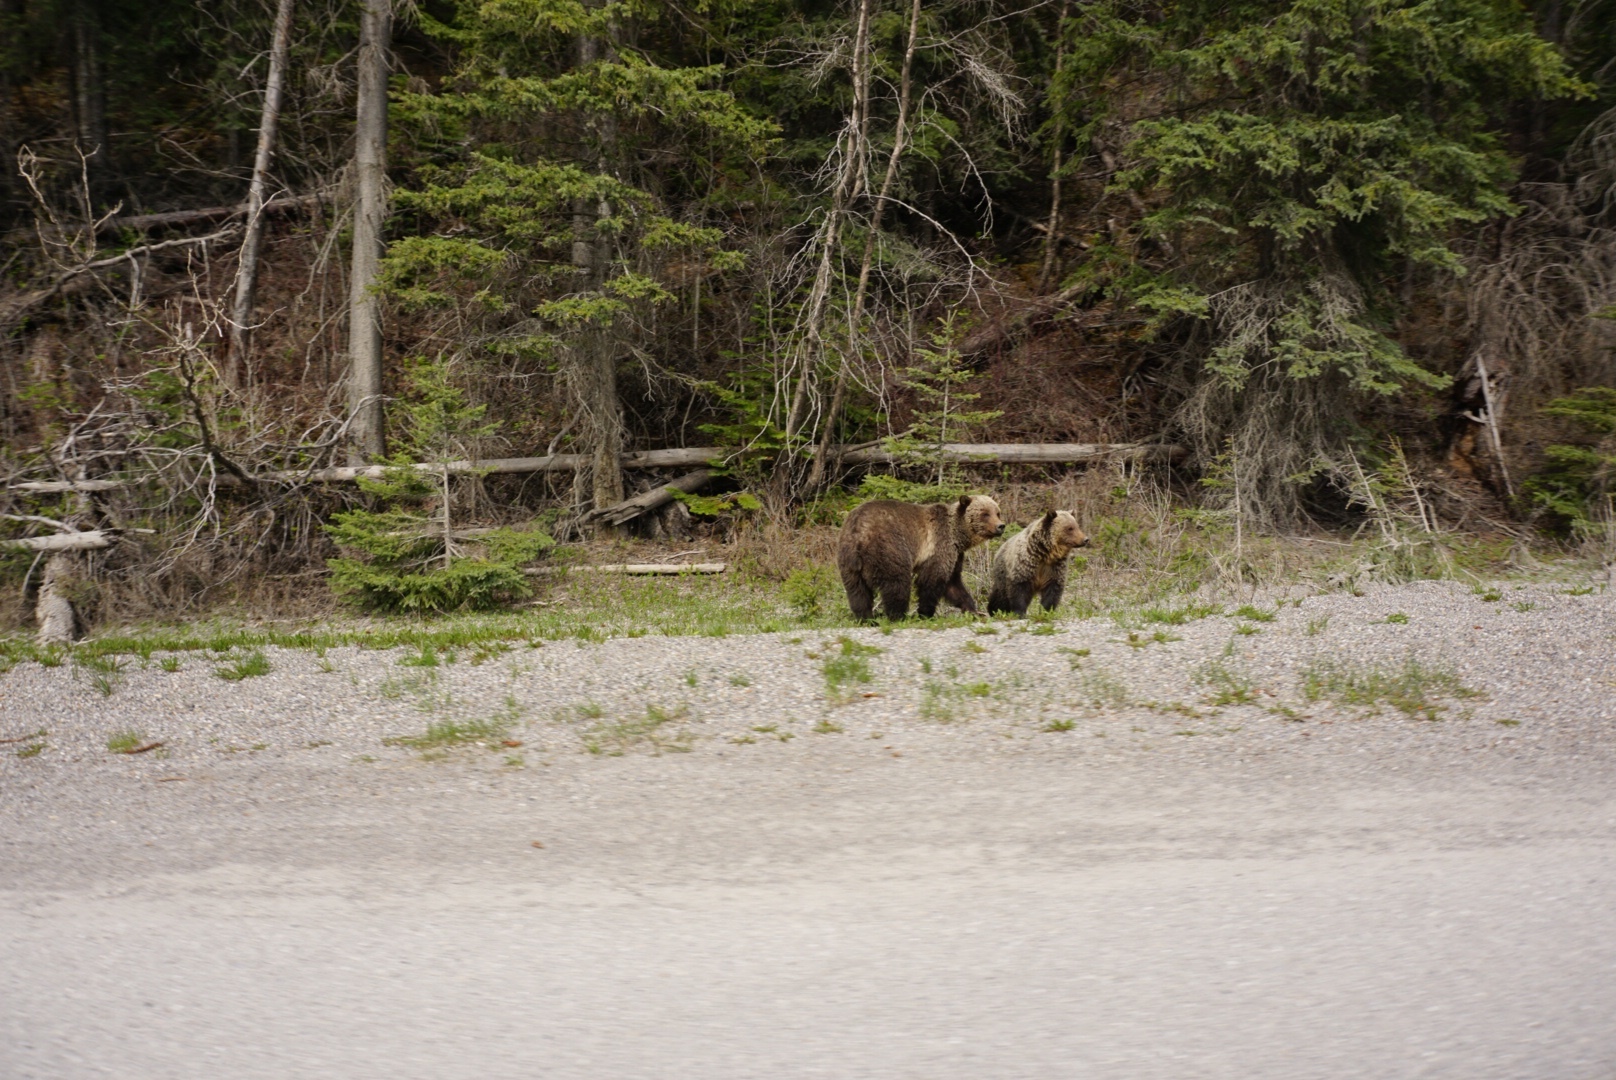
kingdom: Animalia
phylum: Chordata
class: Mammalia
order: Carnivora
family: Ursidae
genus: Ursus
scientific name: Ursus arctos
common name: Brown bear
